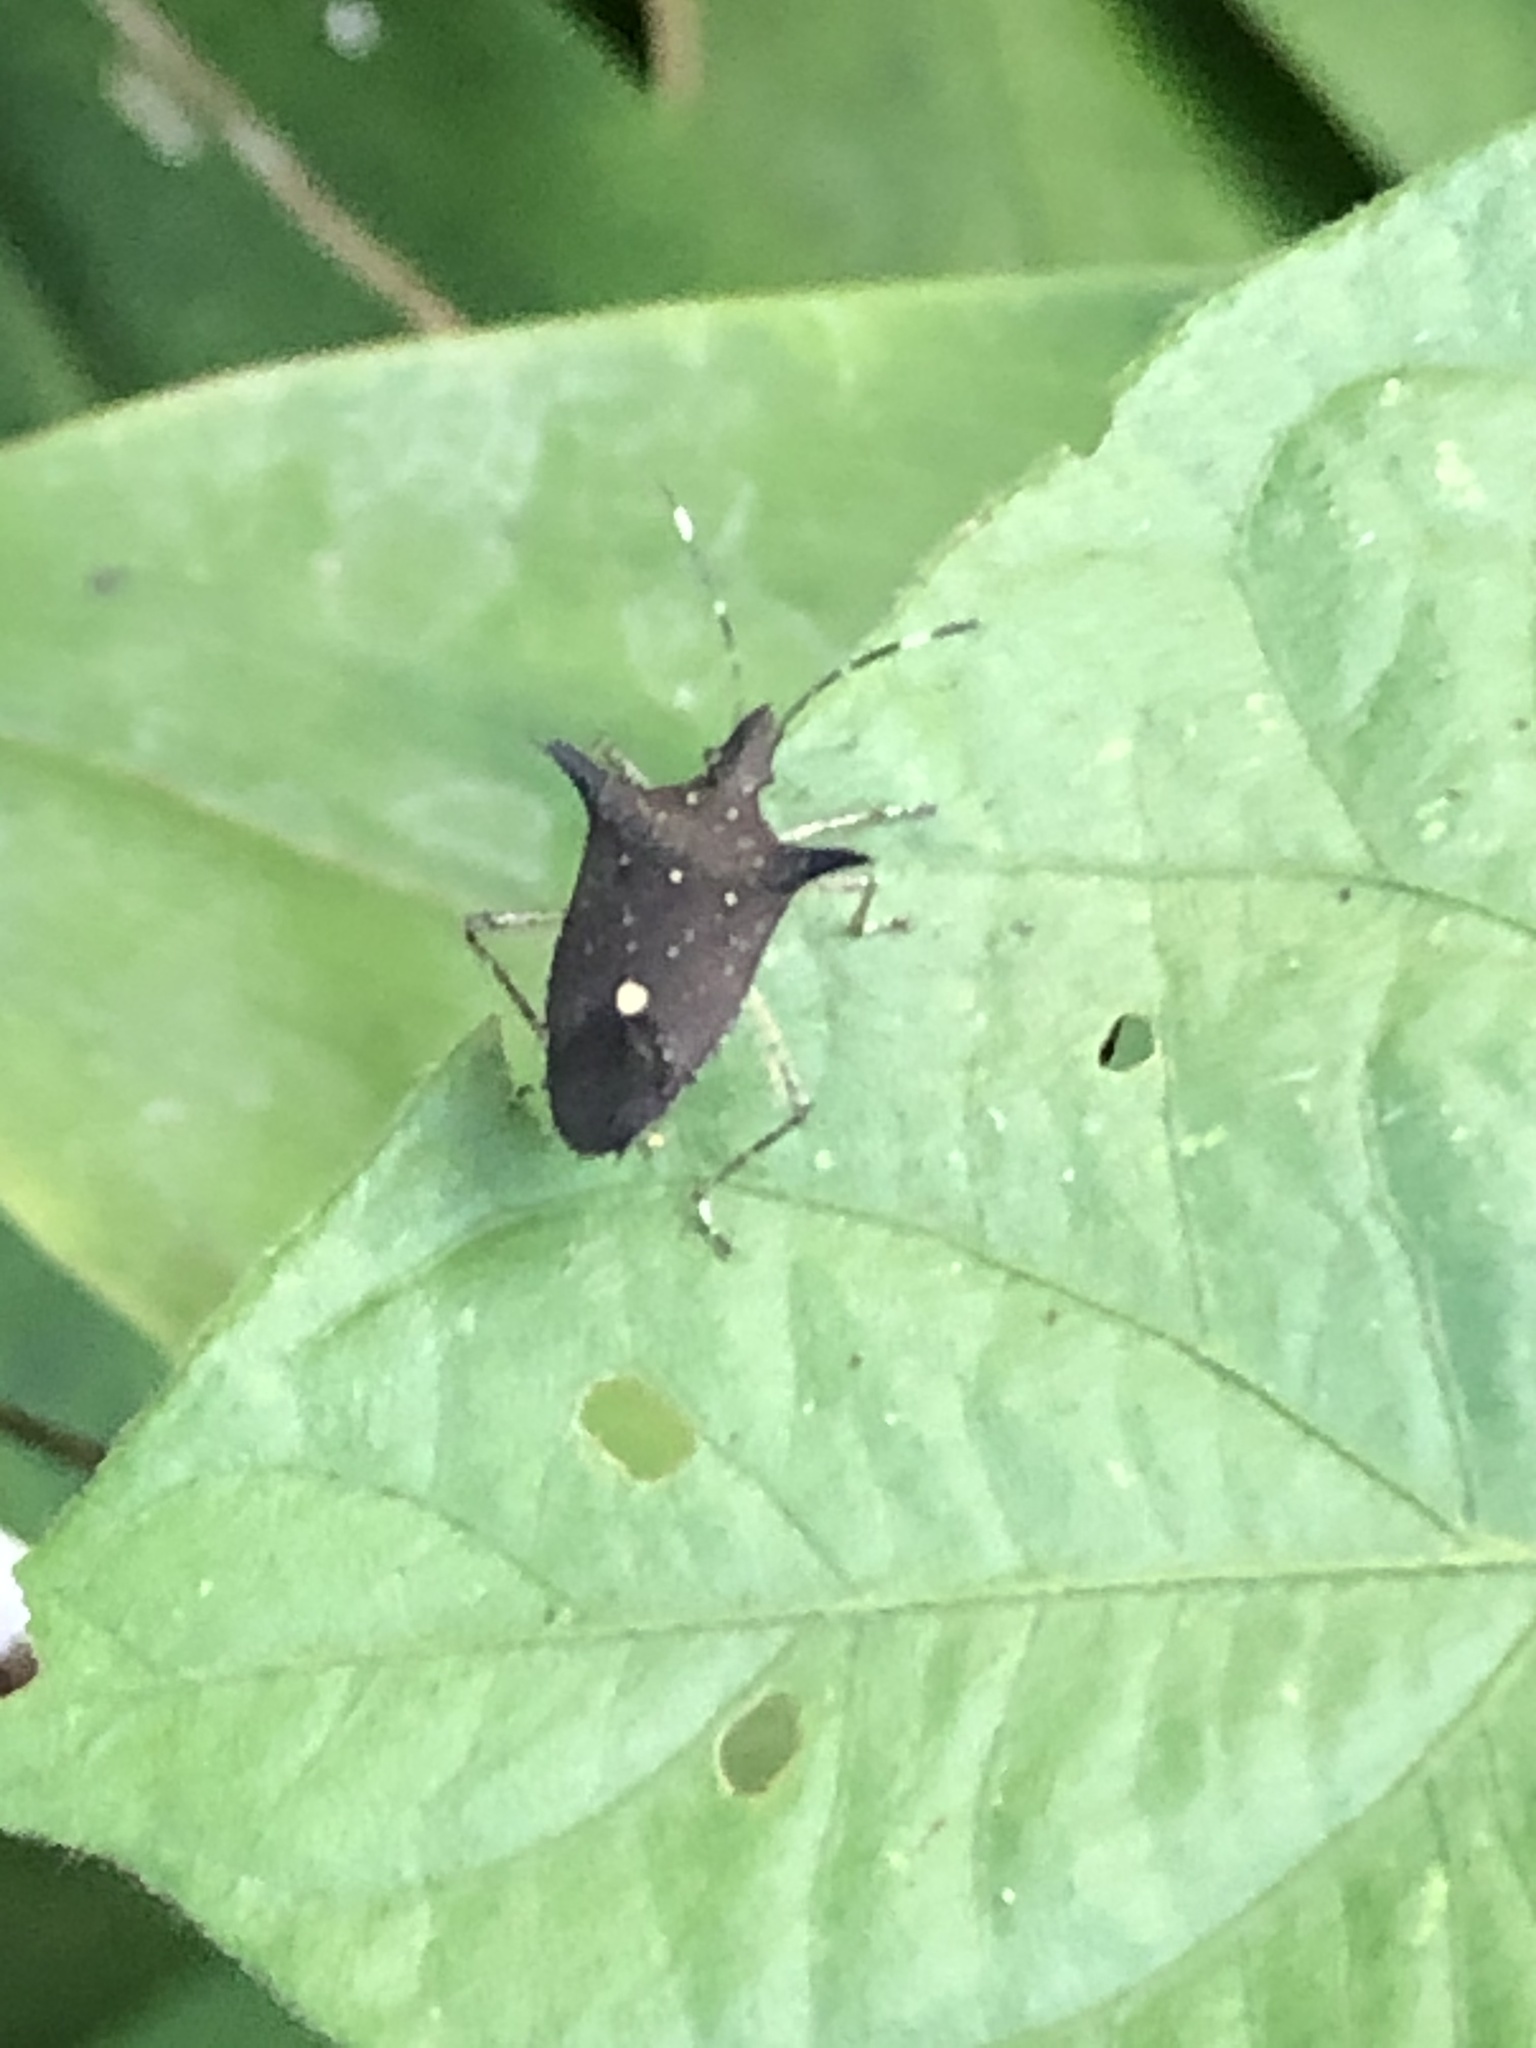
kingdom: Animalia
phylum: Arthropoda
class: Insecta
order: Hemiptera
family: Pentatomidae
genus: Proxys
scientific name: Proxys albopunctulatus
